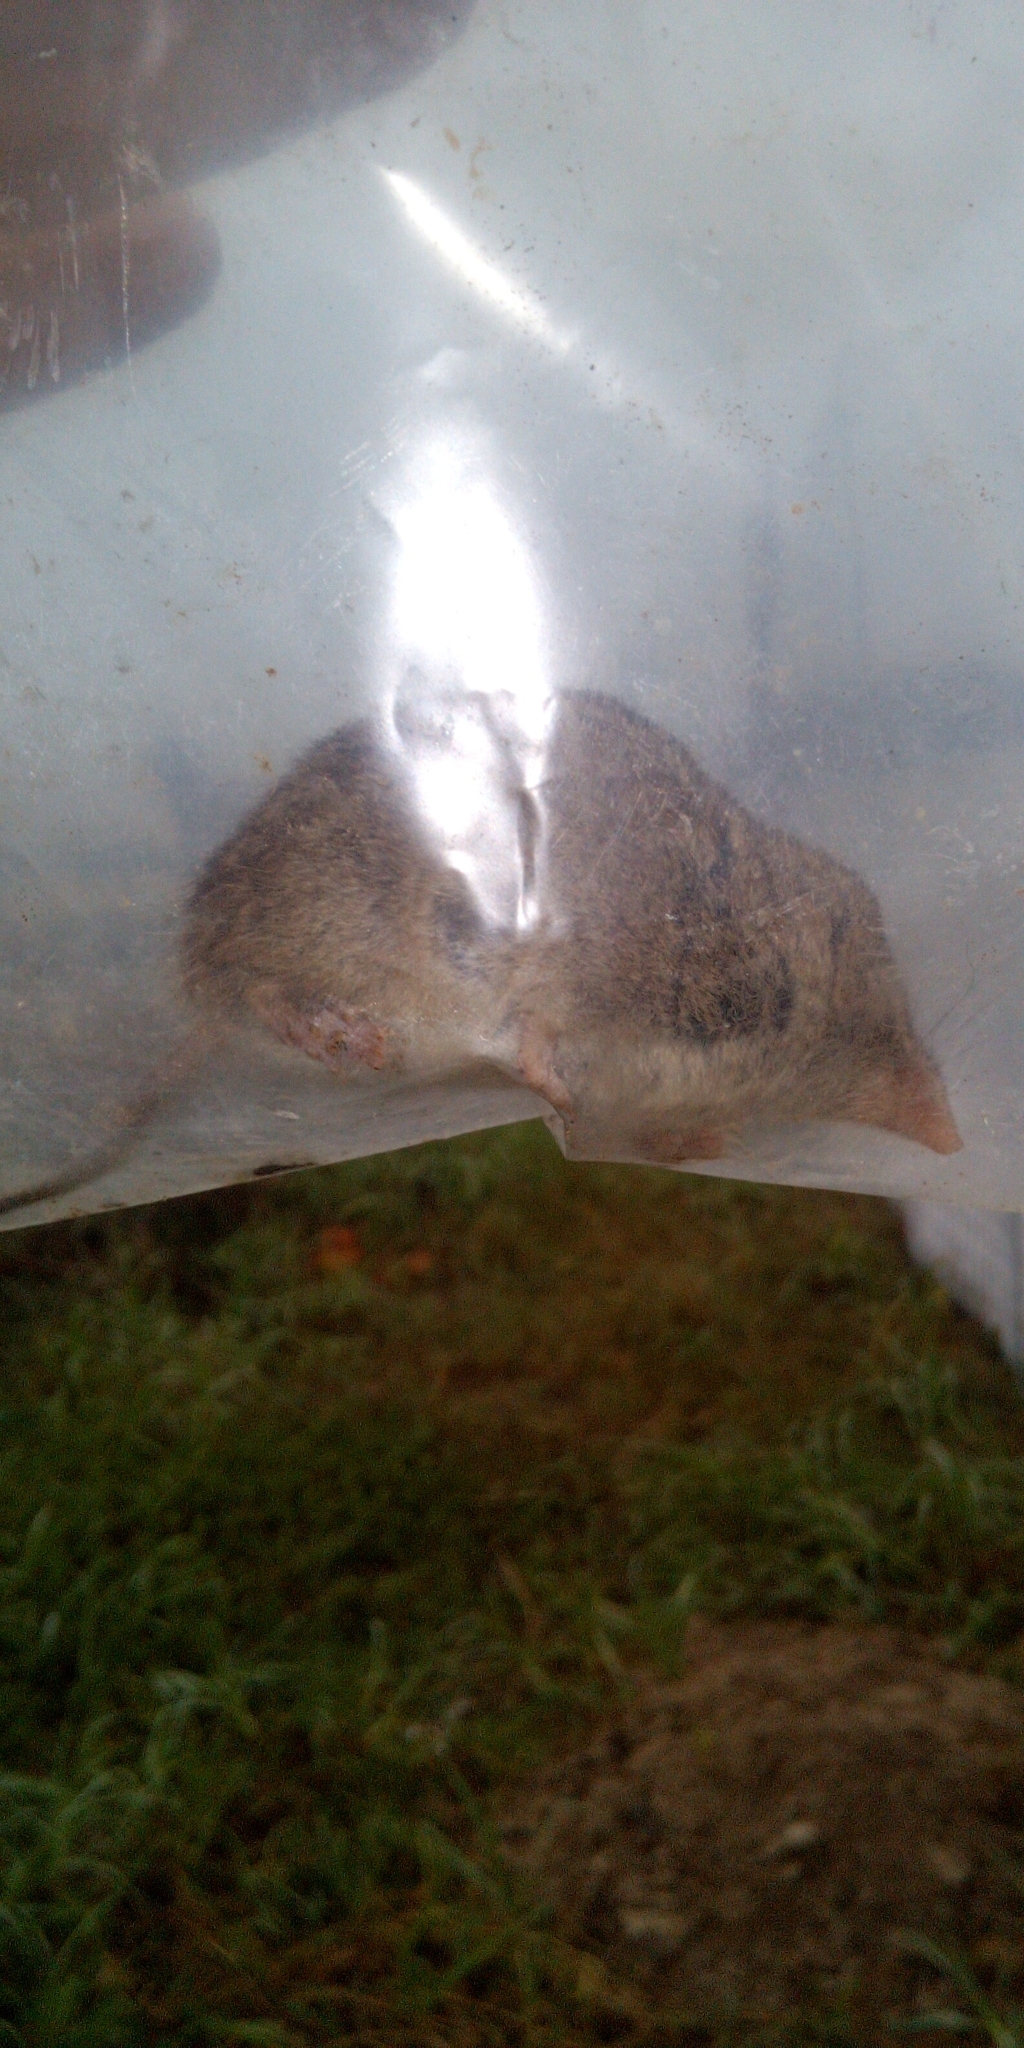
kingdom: Animalia
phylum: Chordata
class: Mammalia
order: Soricomorpha
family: Soricidae
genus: Myosorex
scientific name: Myosorex varius
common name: Forest shrew
